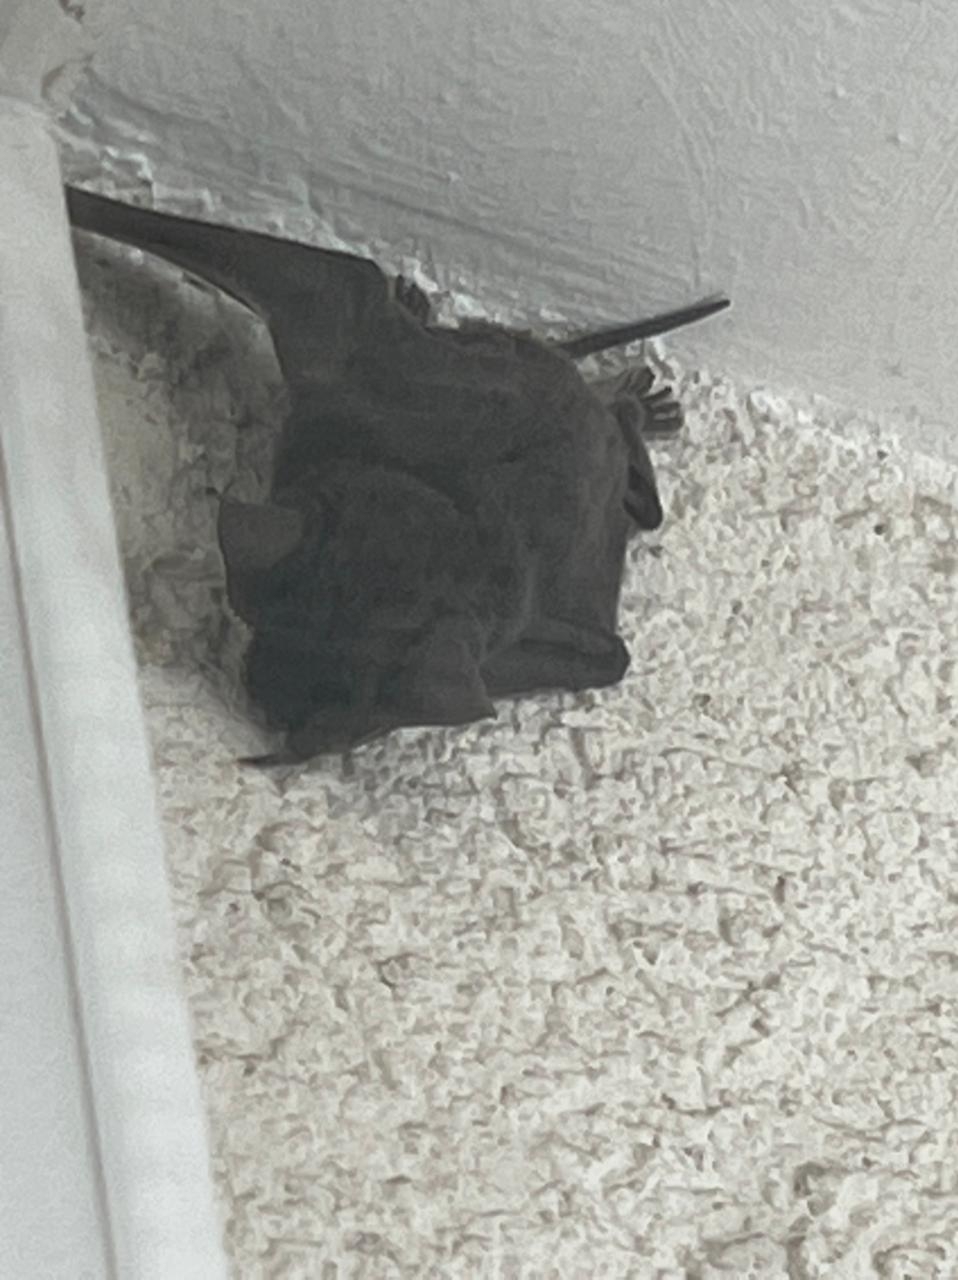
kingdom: Animalia
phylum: Chordata
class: Mammalia
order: Chiroptera
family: Molossidae
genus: Tadarida
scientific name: Tadarida brasiliensis
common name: Mexican free-tailed bat
